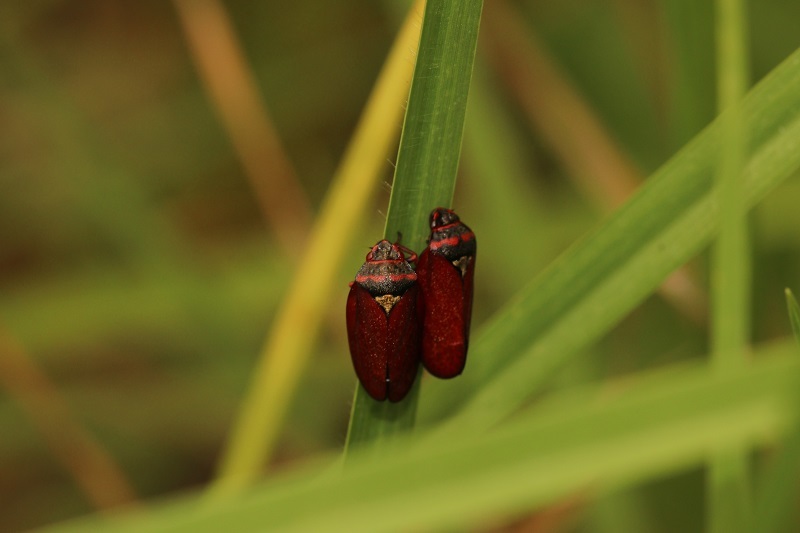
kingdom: Animalia
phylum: Arthropoda
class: Insecta
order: Hemiptera
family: Cercopidae
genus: Locris
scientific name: Locris transversa
